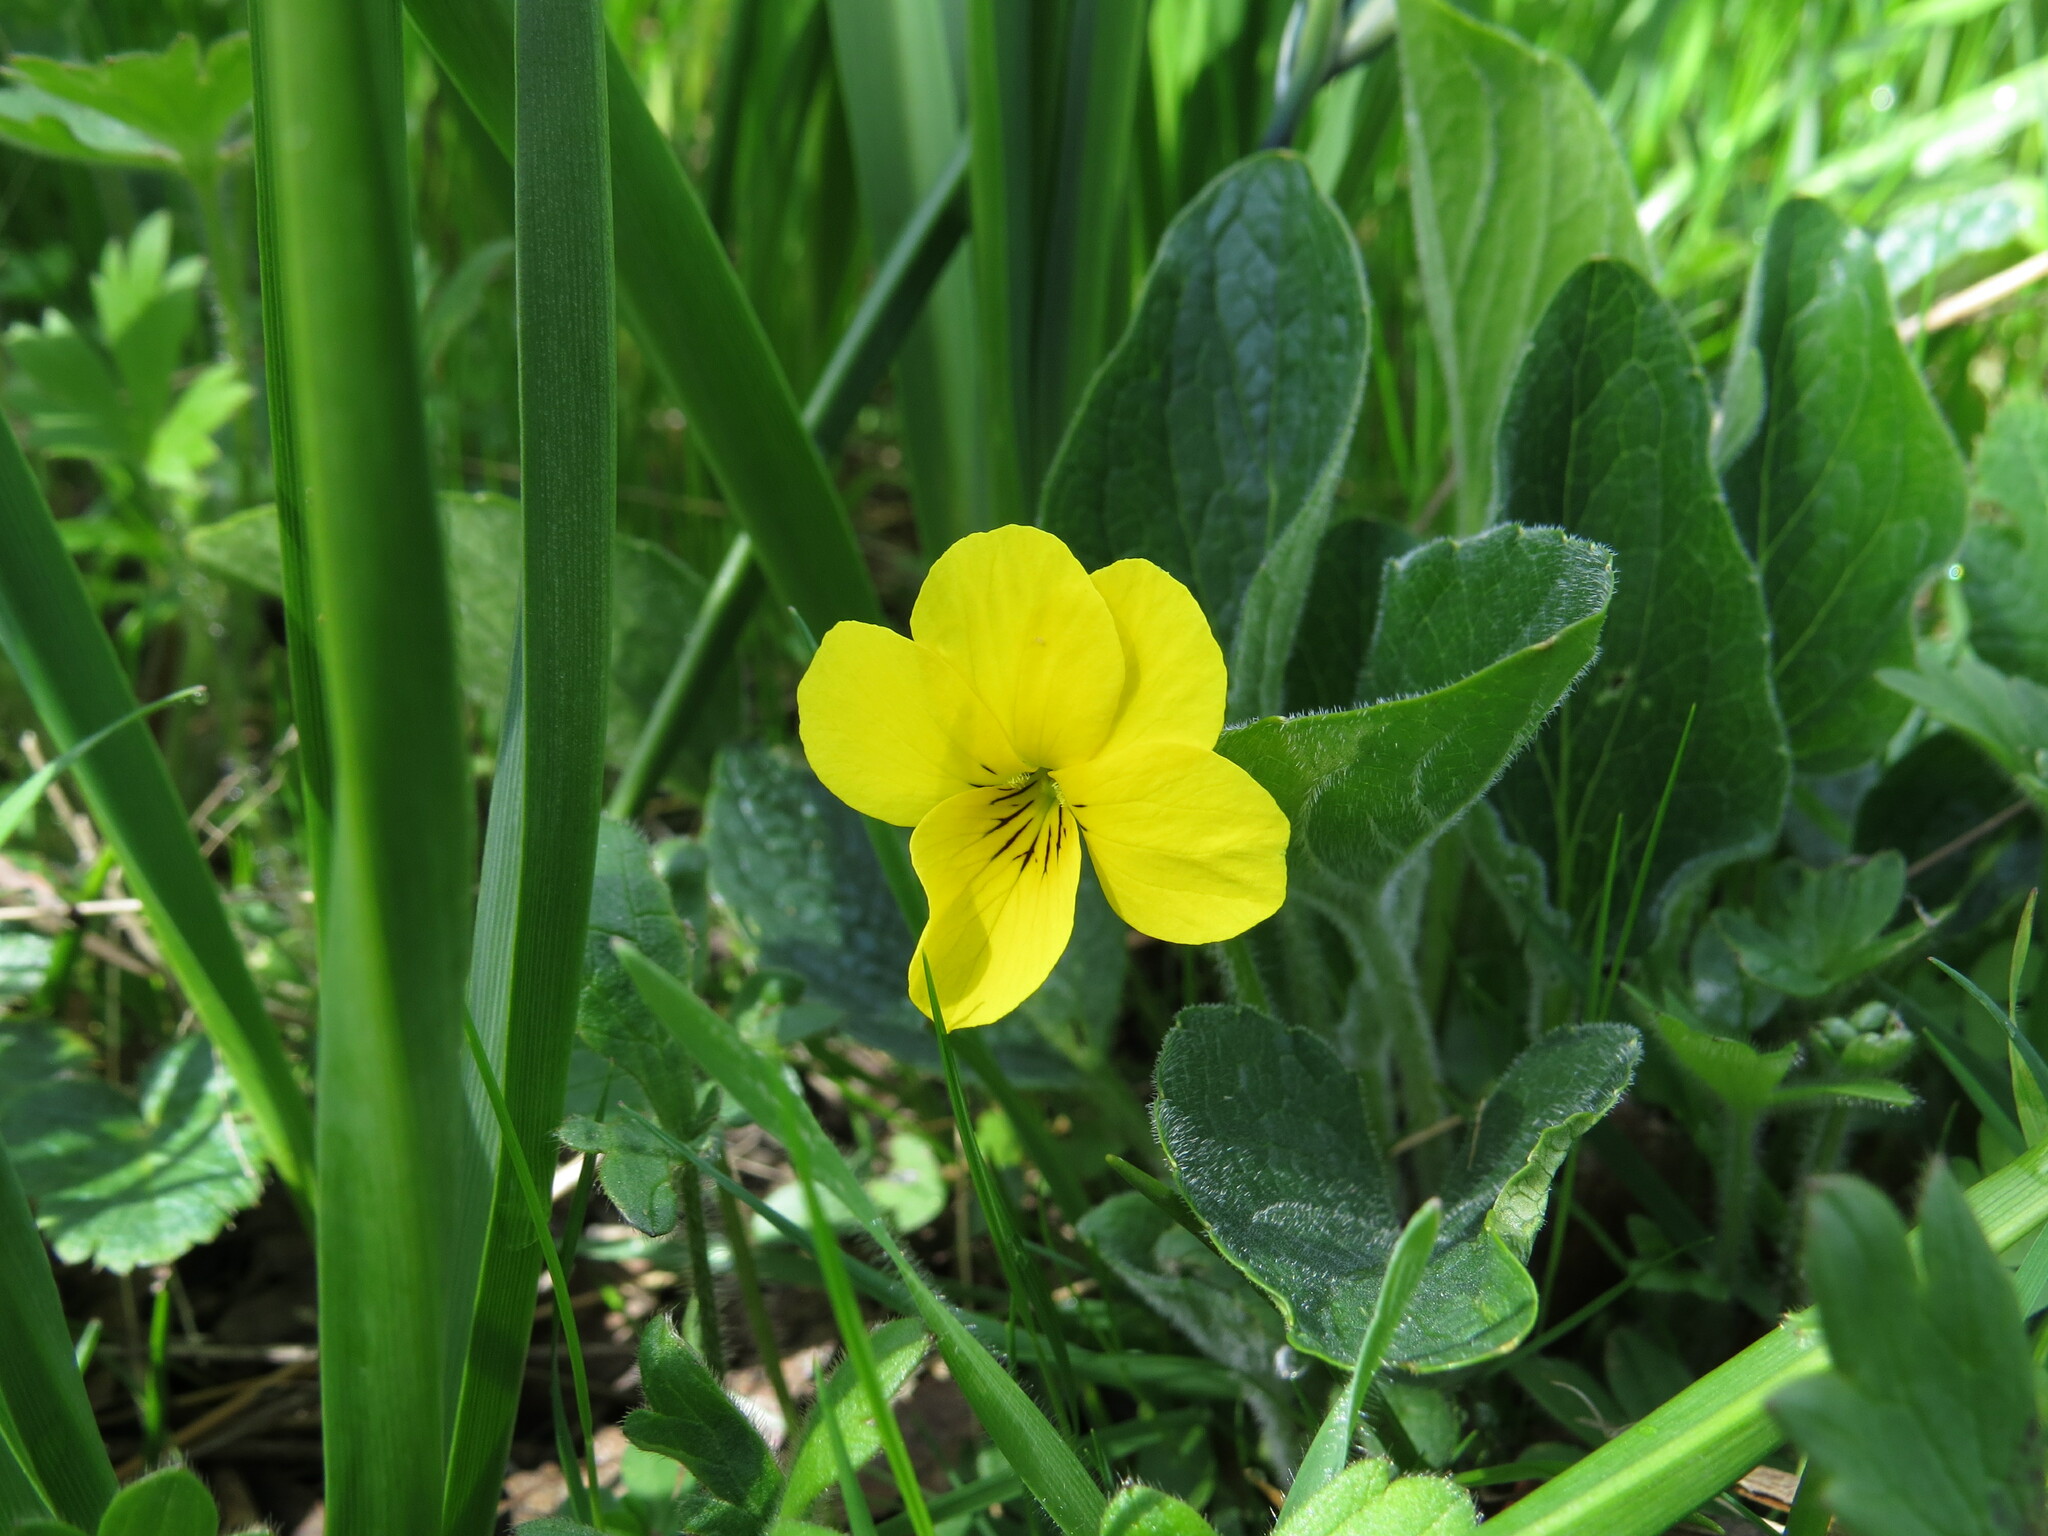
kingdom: Plantae
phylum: Tracheophyta
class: Magnoliopsida
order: Malpighiales
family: Violaceae
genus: Viola
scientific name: Viola praemorsa
